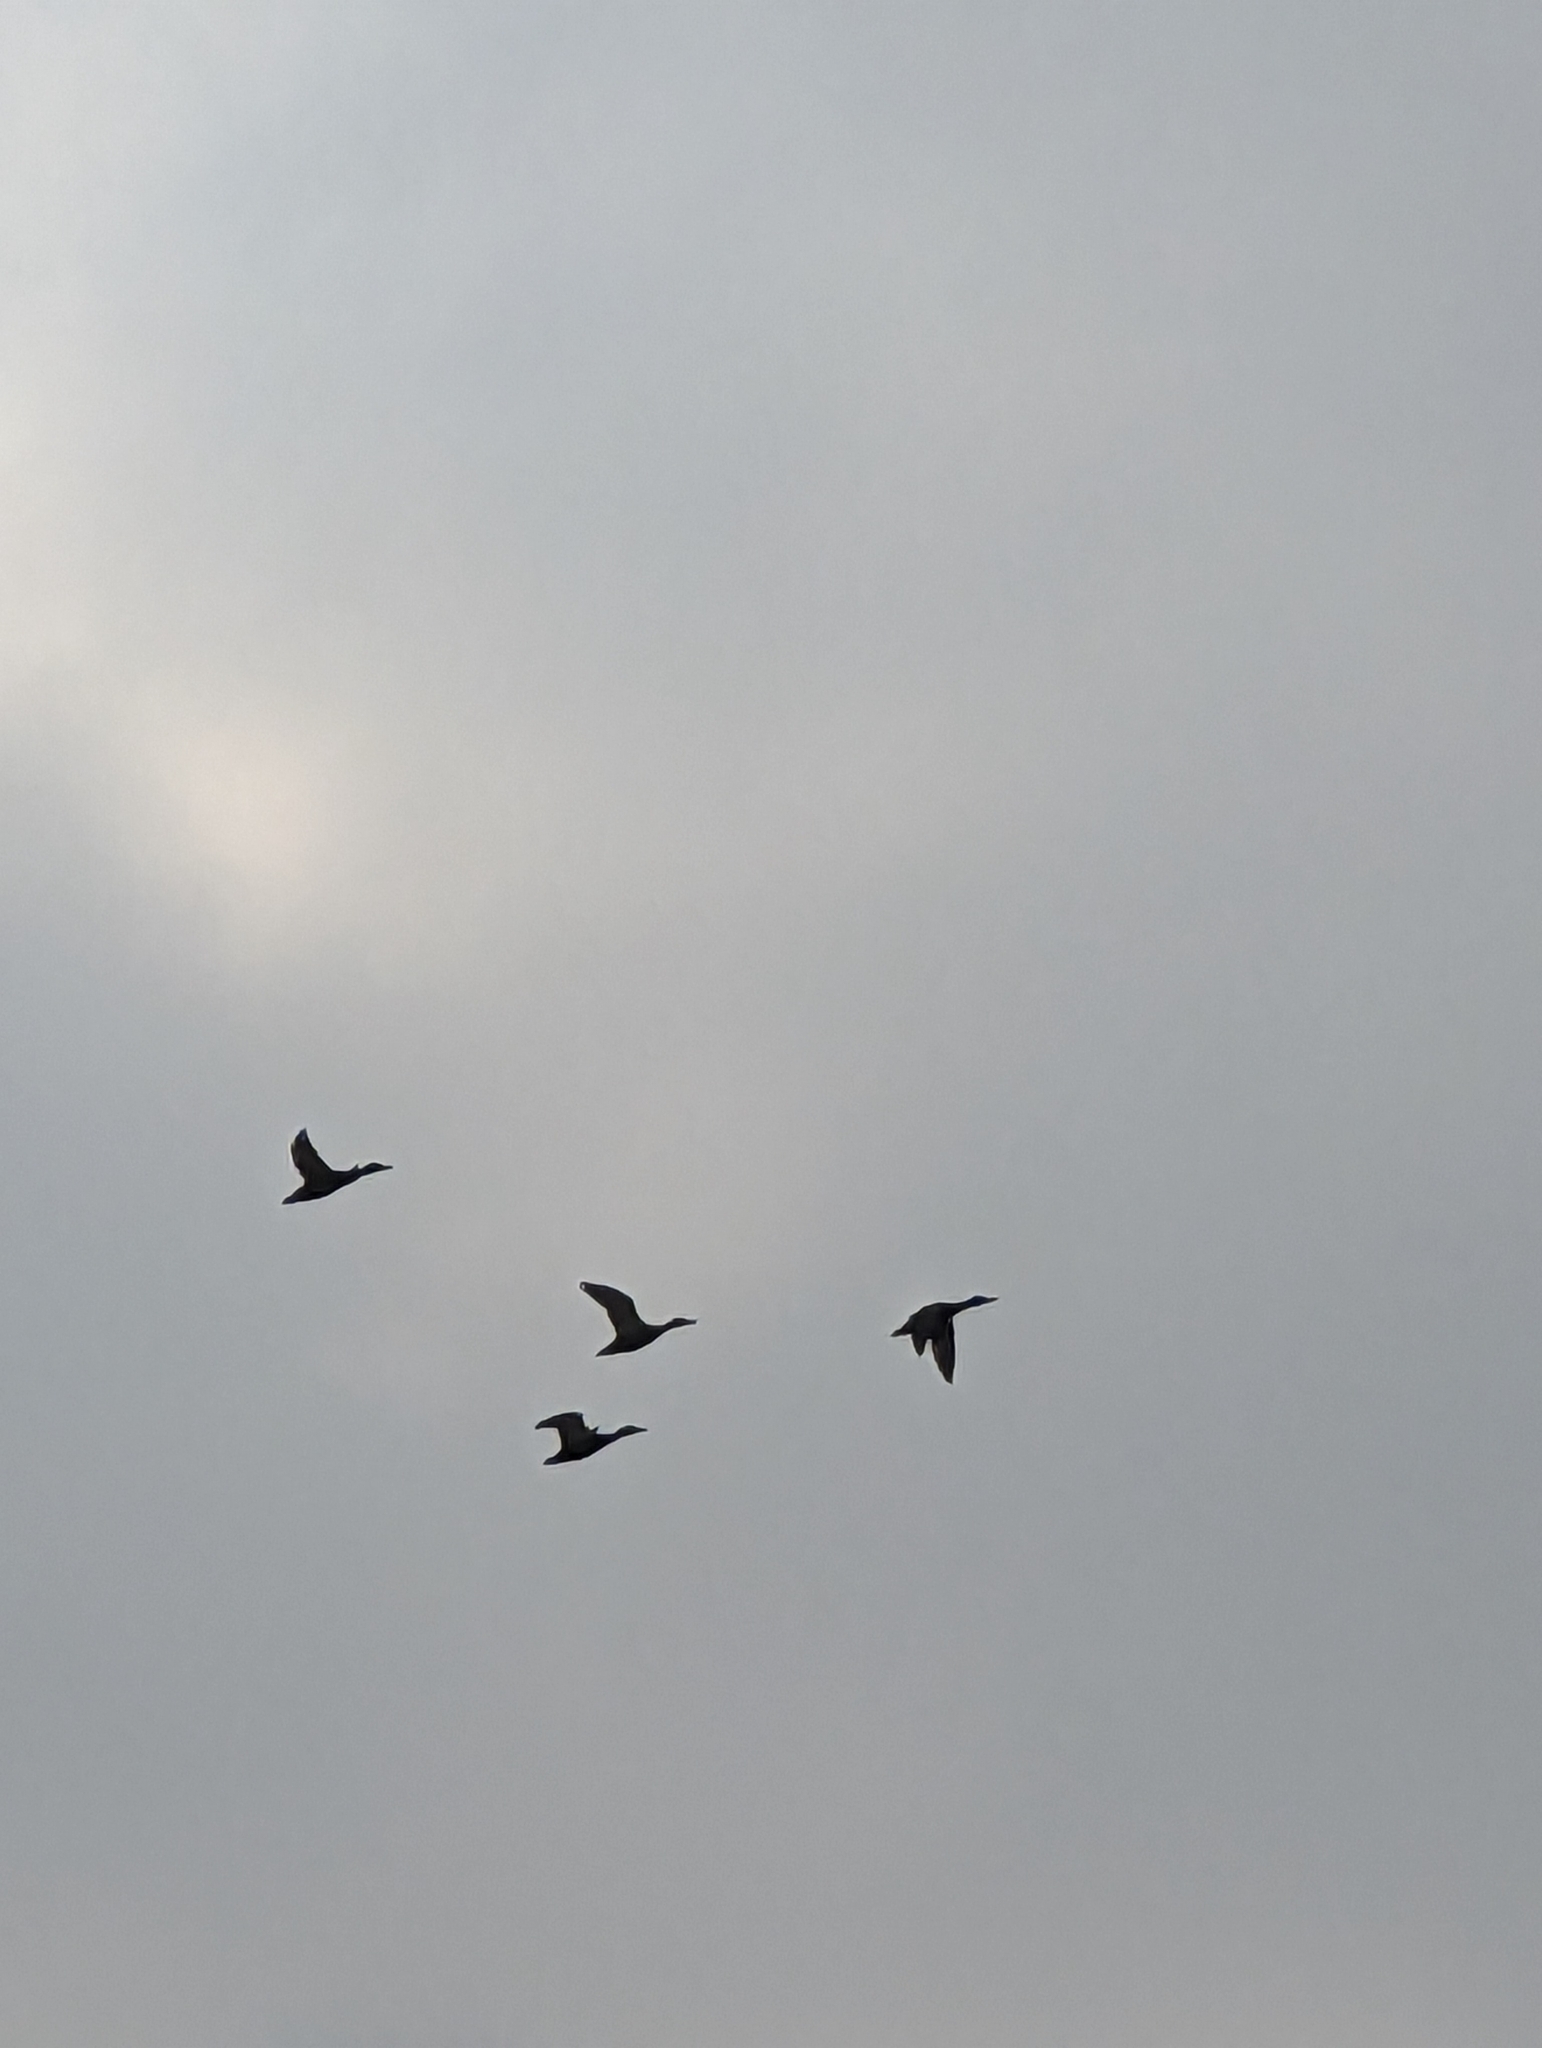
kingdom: Animalia
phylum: Chordata
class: Aves
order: Anseriformes
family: Anatidae
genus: Anas
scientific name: Anas platyrhynchos
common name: Mallard
